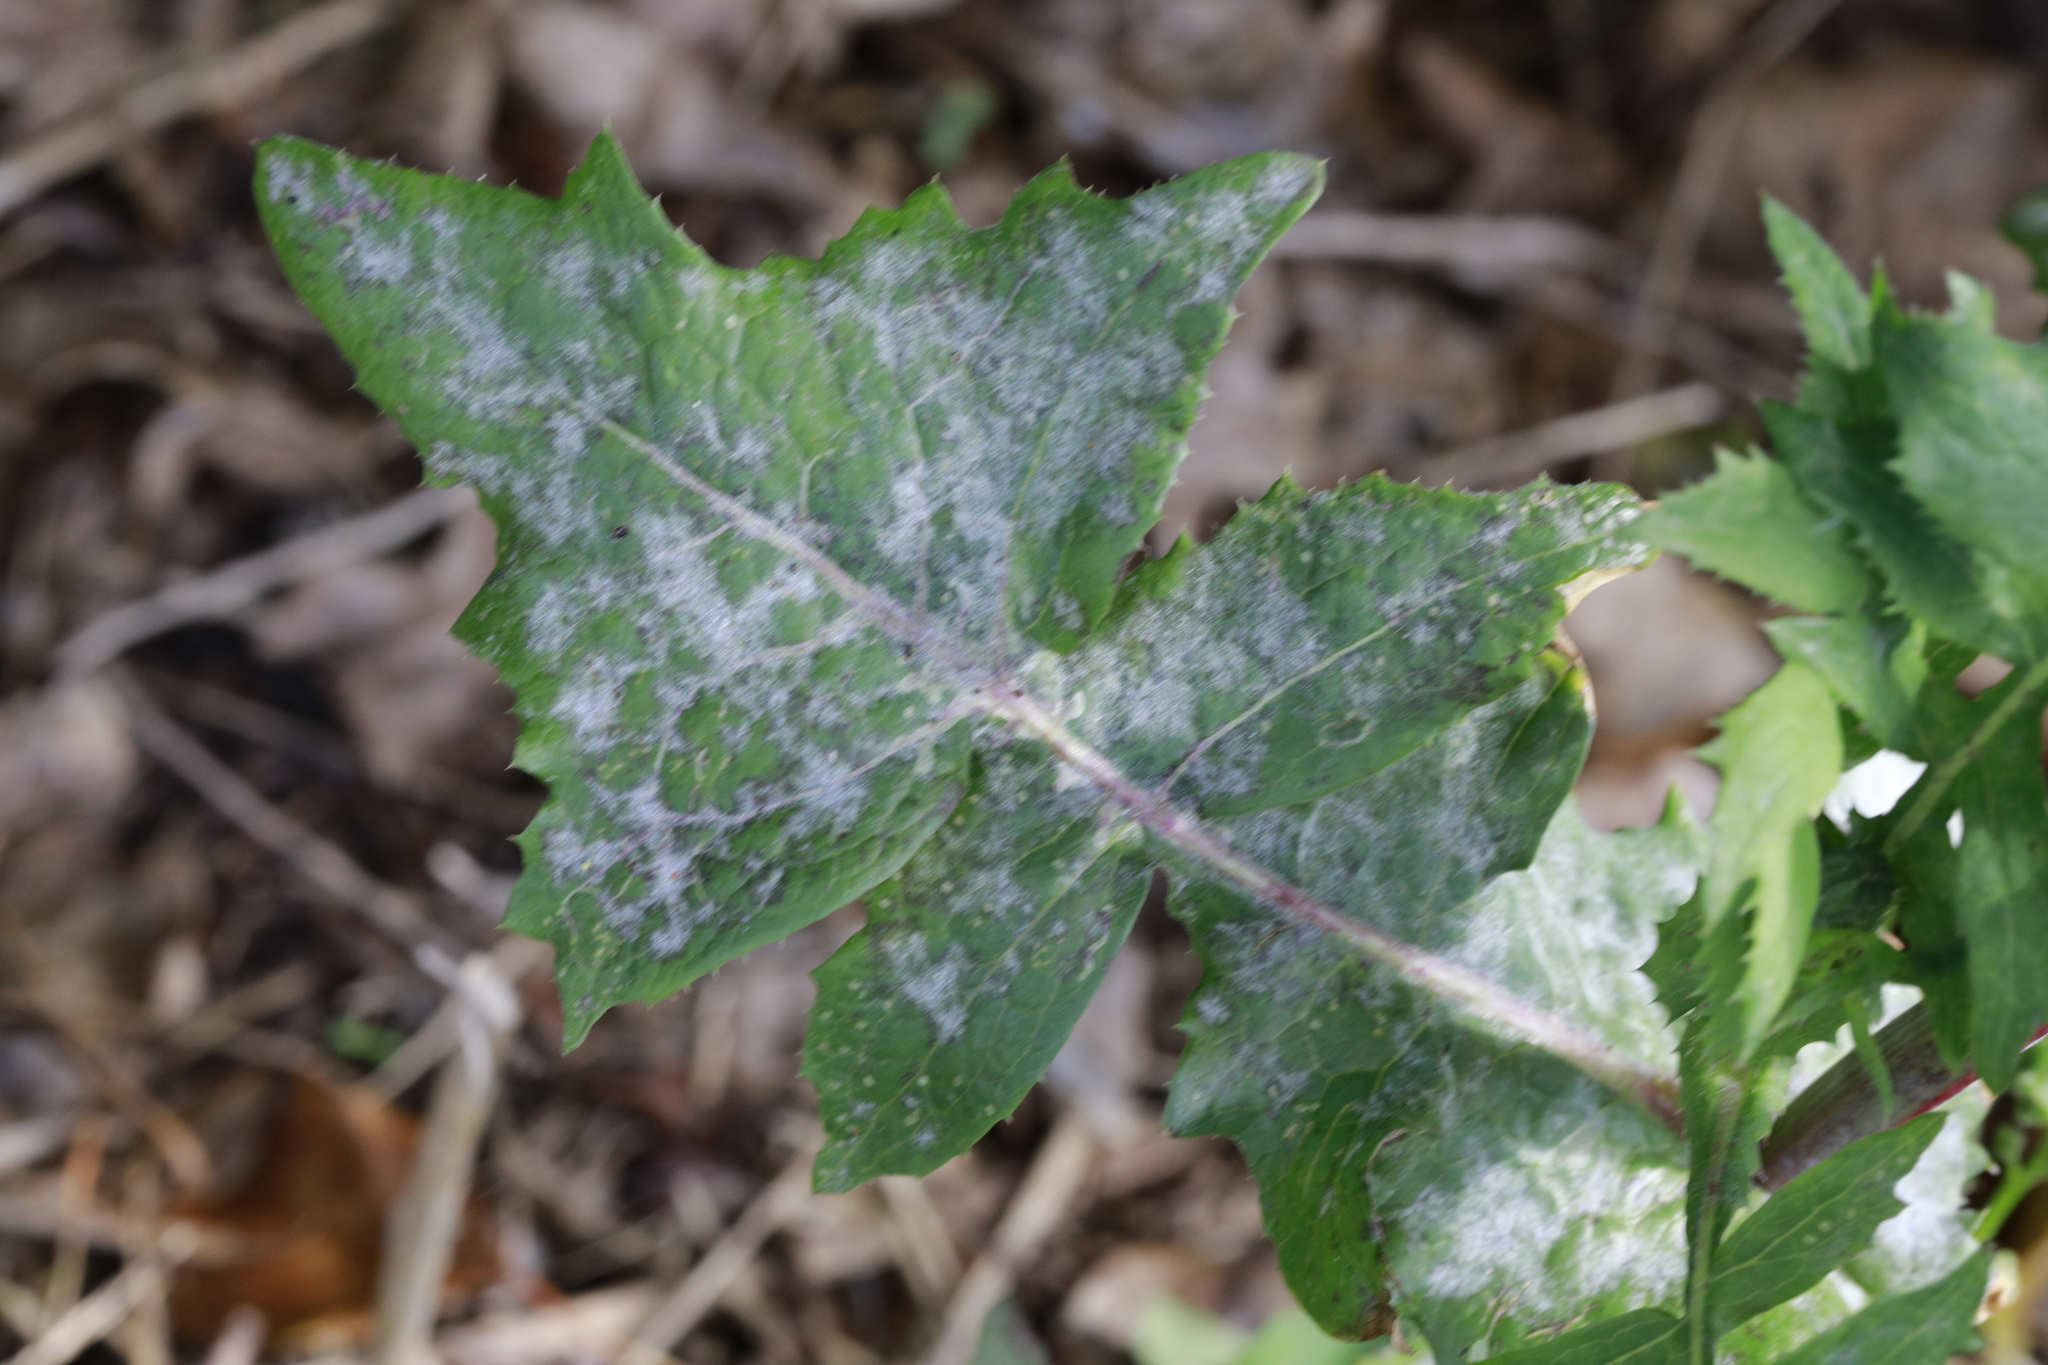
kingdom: Fungi
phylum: Ascomycota
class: Leotiomycetes
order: Helotiales
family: Erysiphaceae
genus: Golovinomyces
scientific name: Golovinomyces sonchicola
